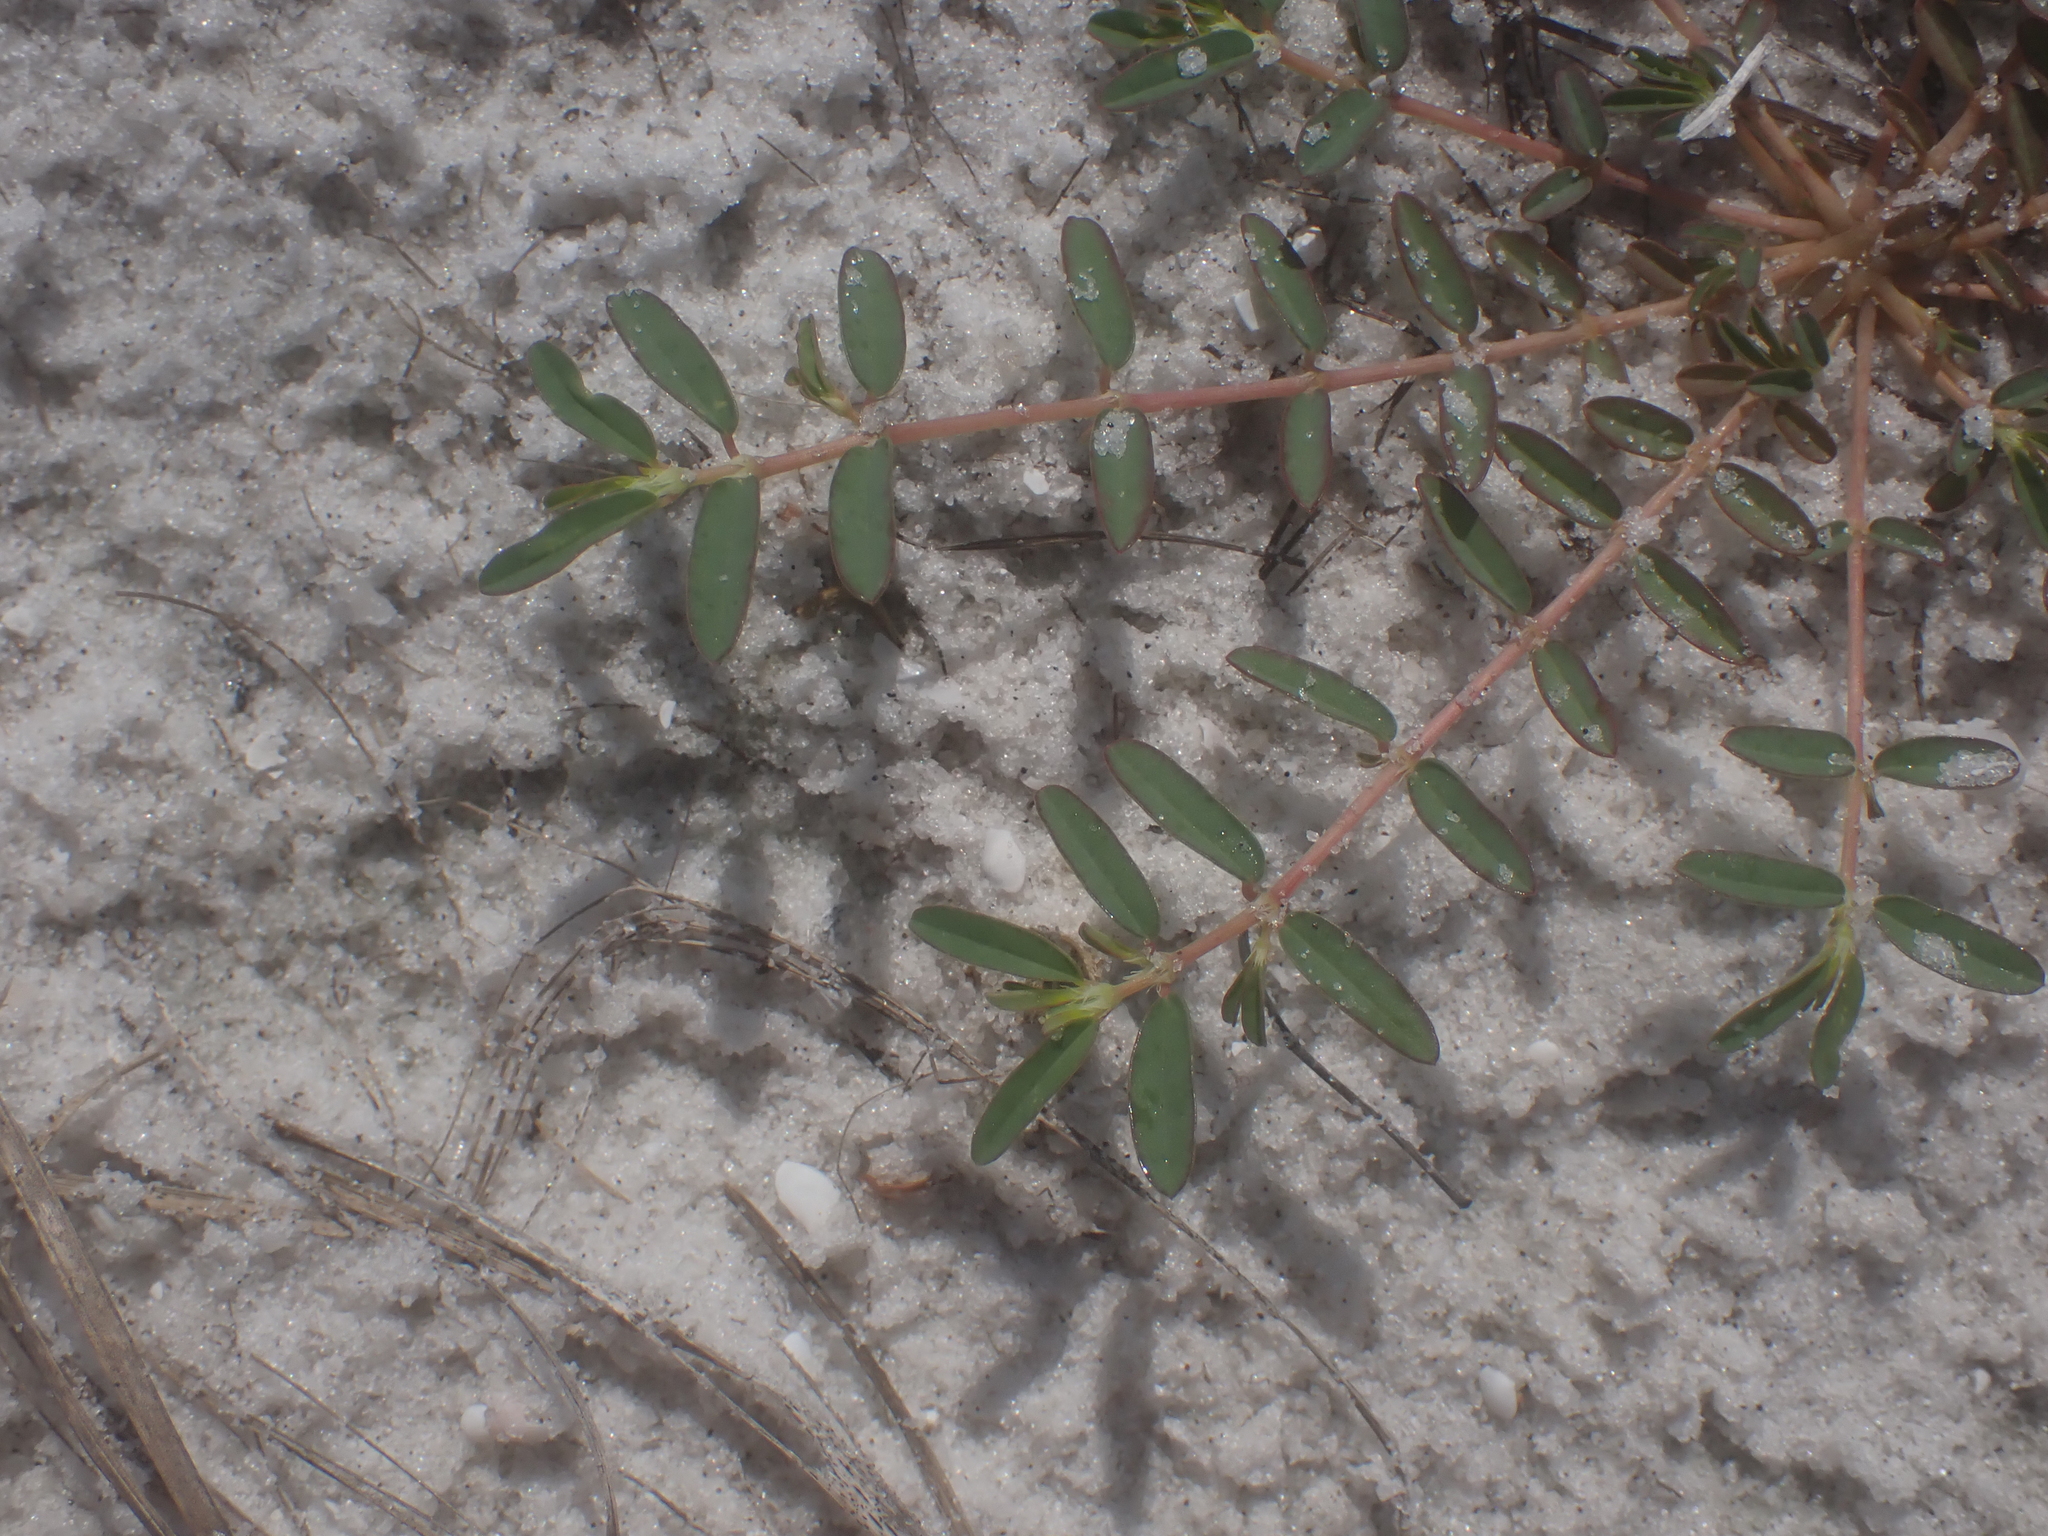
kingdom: Plantae
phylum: Tracheophyta
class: Magnoliopsida
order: Malpighiales
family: Euphorbiaceae
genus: Euphorbia
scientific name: Euphorbia bombensis
